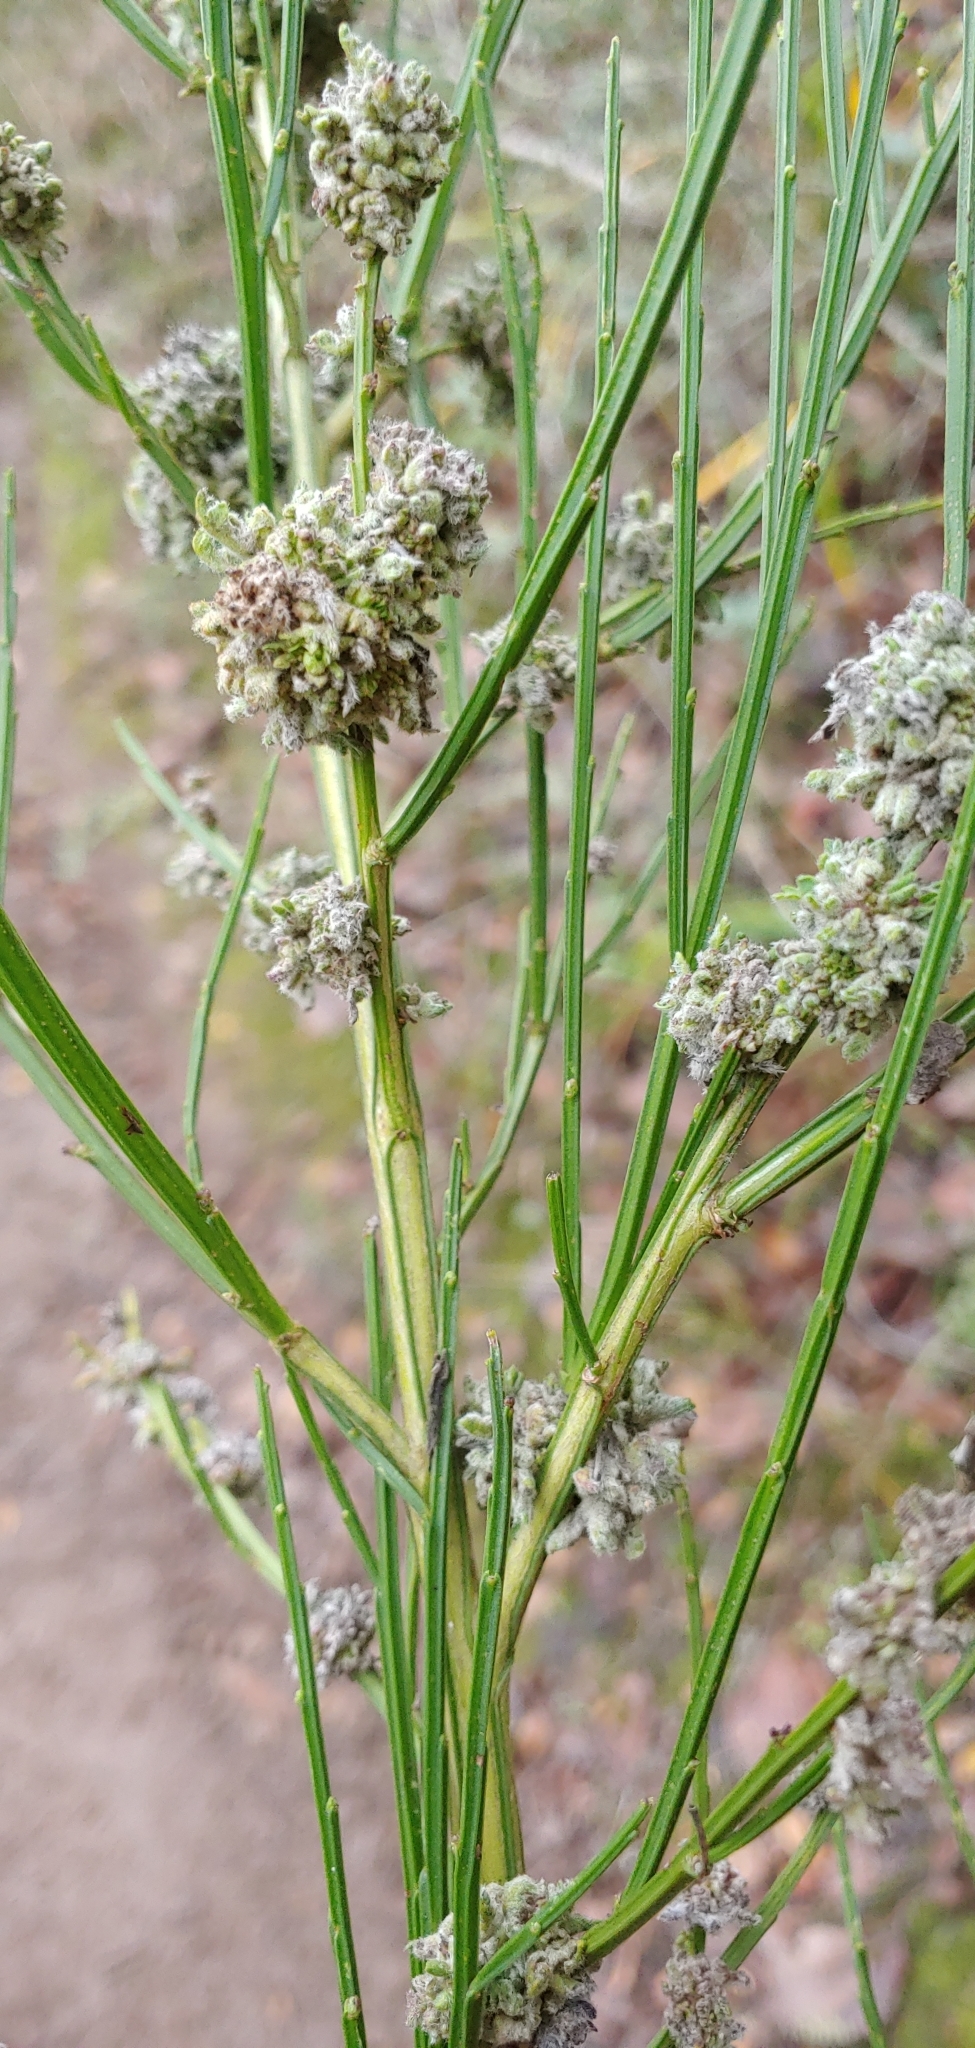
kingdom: Animalia
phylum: Arthropoda
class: Arachnida
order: Trombidiformes
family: Eriophyidae
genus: Aceria
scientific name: Aceria genistae
